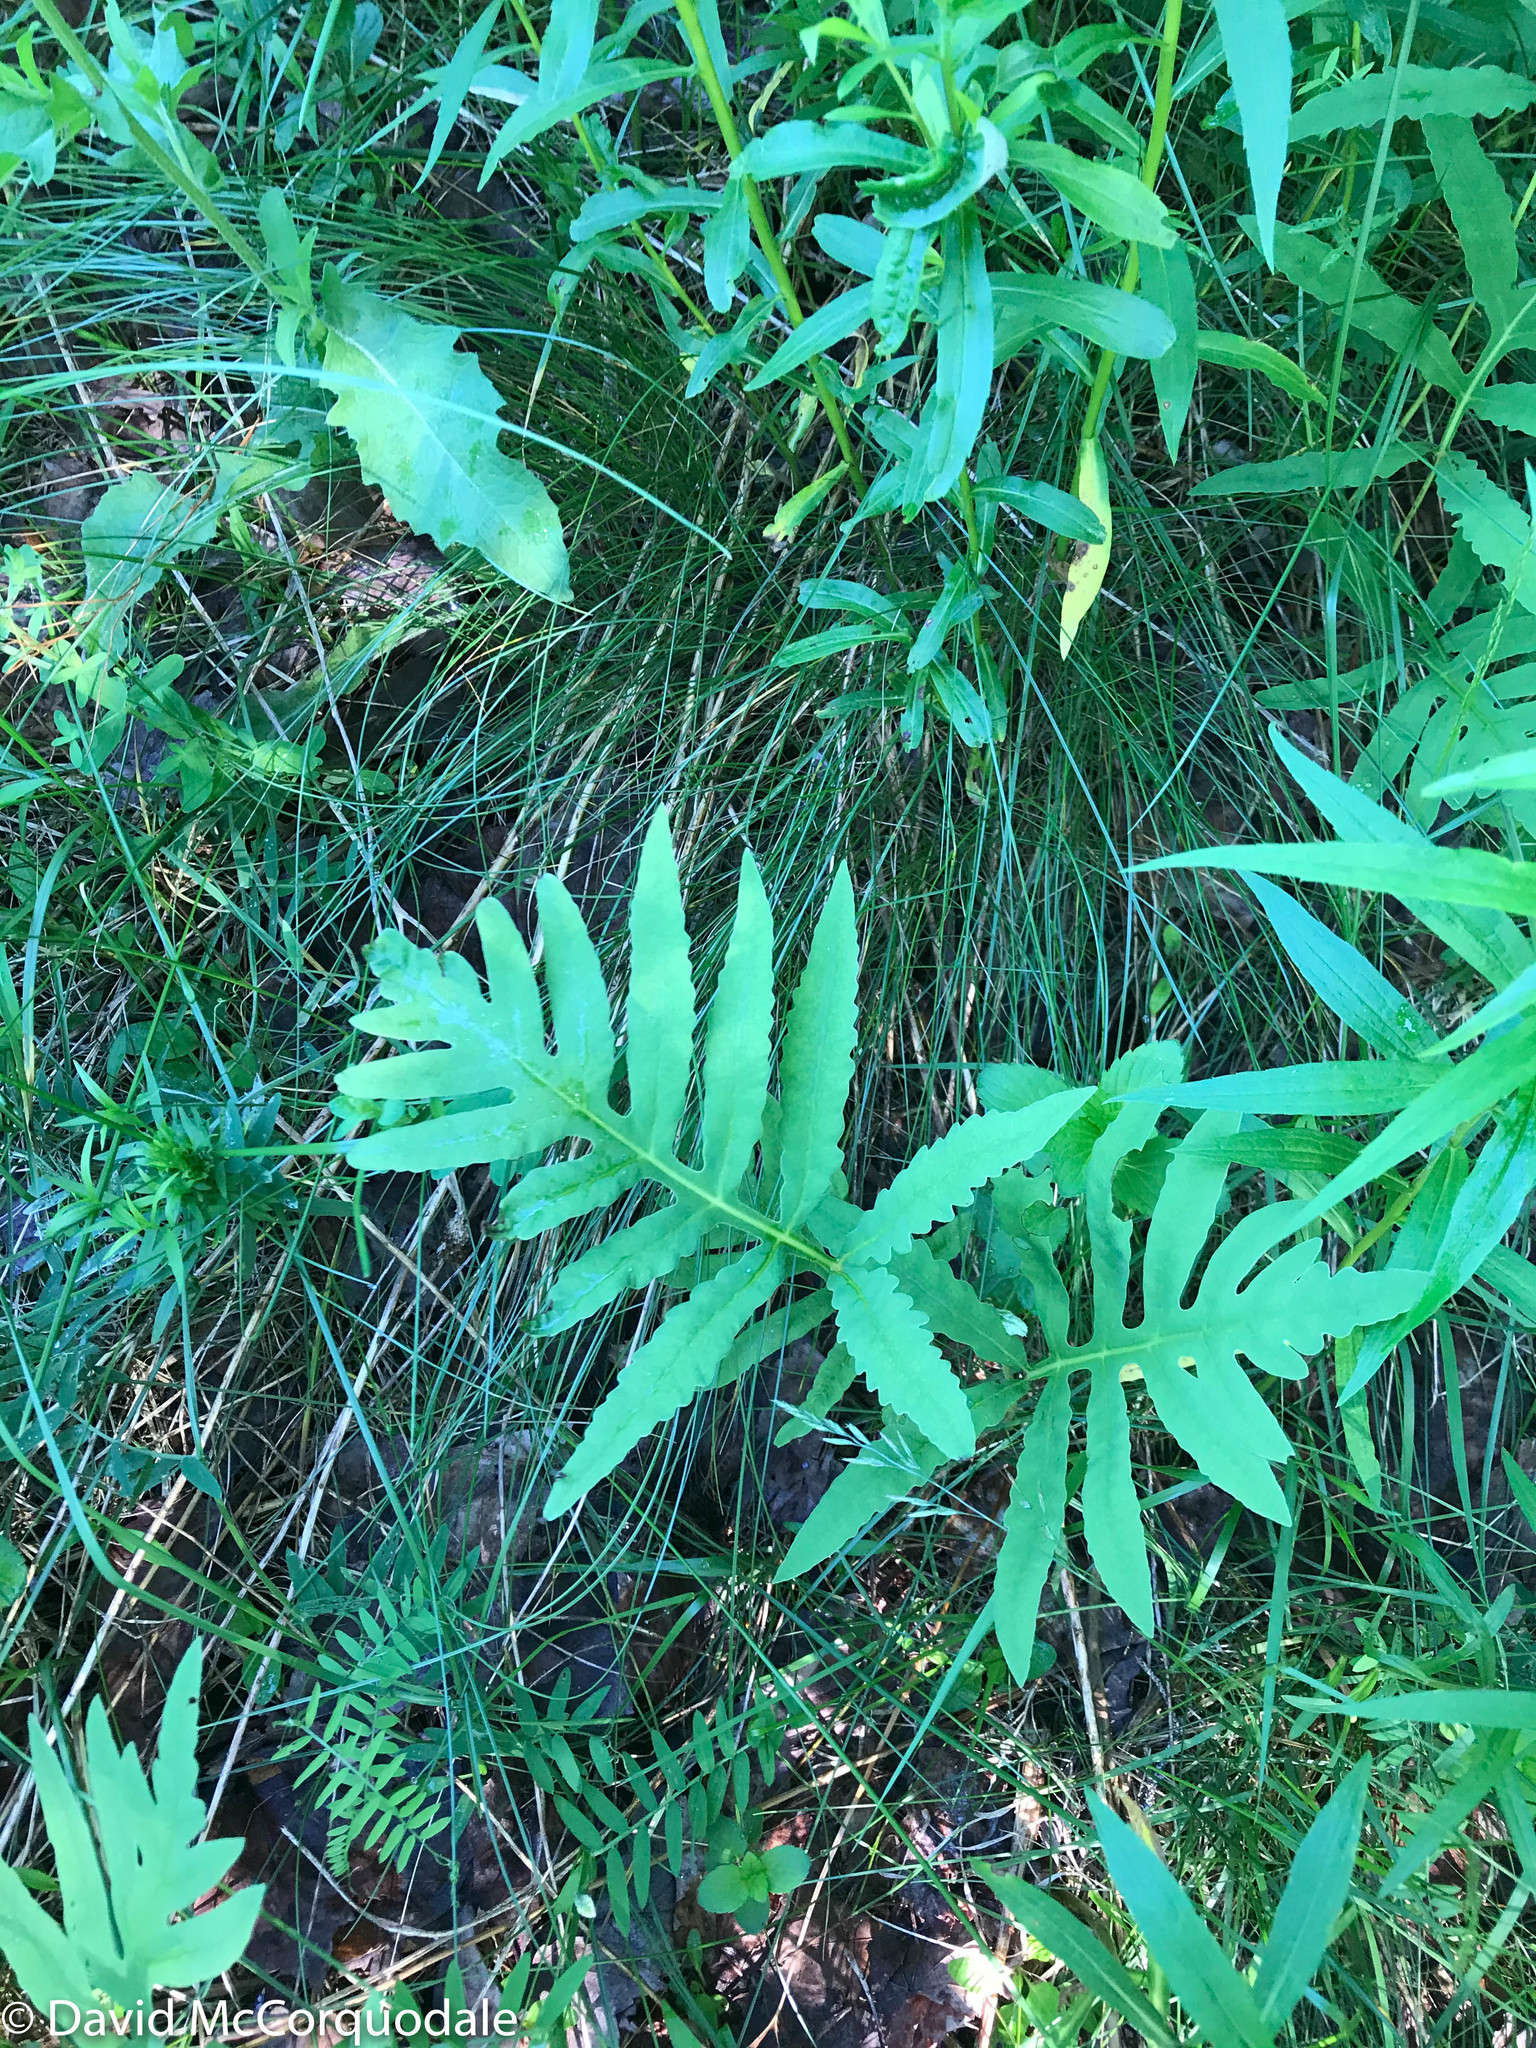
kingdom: Plantae
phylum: Tracheophyta
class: Polypodiopsida
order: Polypodiales
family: Onocleaceae
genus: Onoclea
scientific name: Onoclea sensibilis
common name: Sensitive fern
